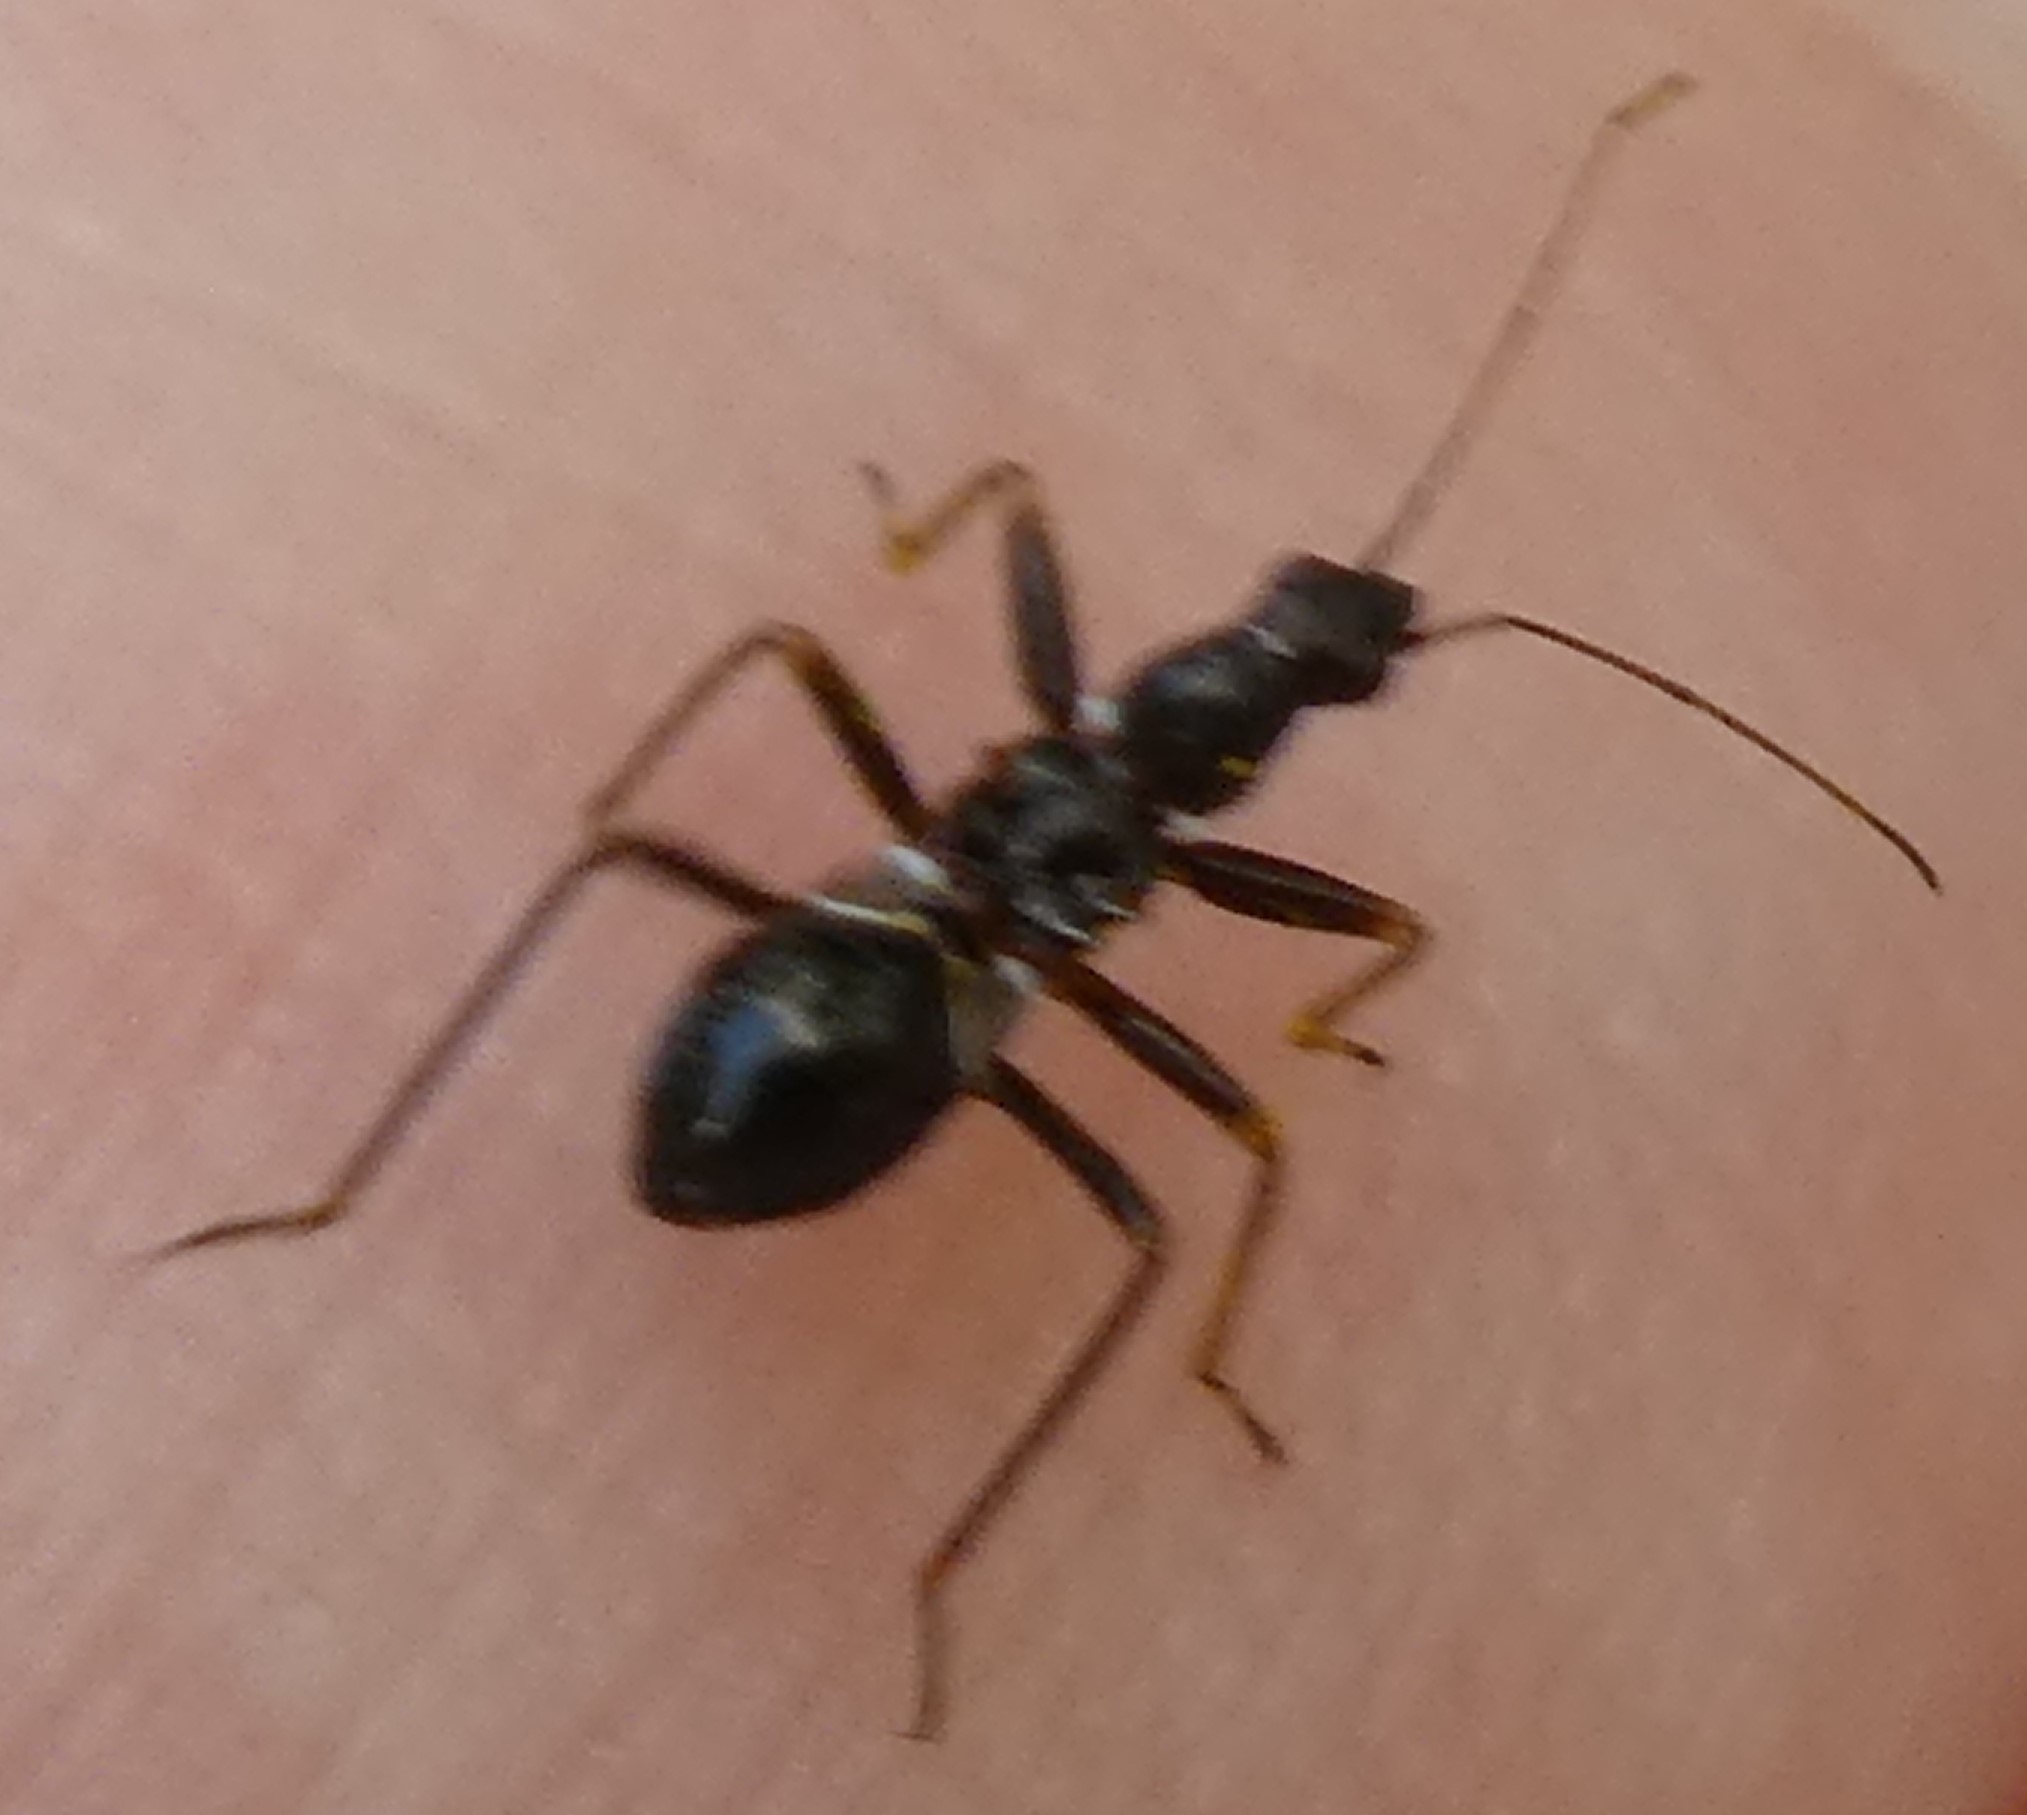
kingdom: Animalia
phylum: Arthropoda
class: Insecta
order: Hemiptera
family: Nabidae
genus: Himacerus
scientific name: Himacerus mirmicoides
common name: Ant damsel bug
